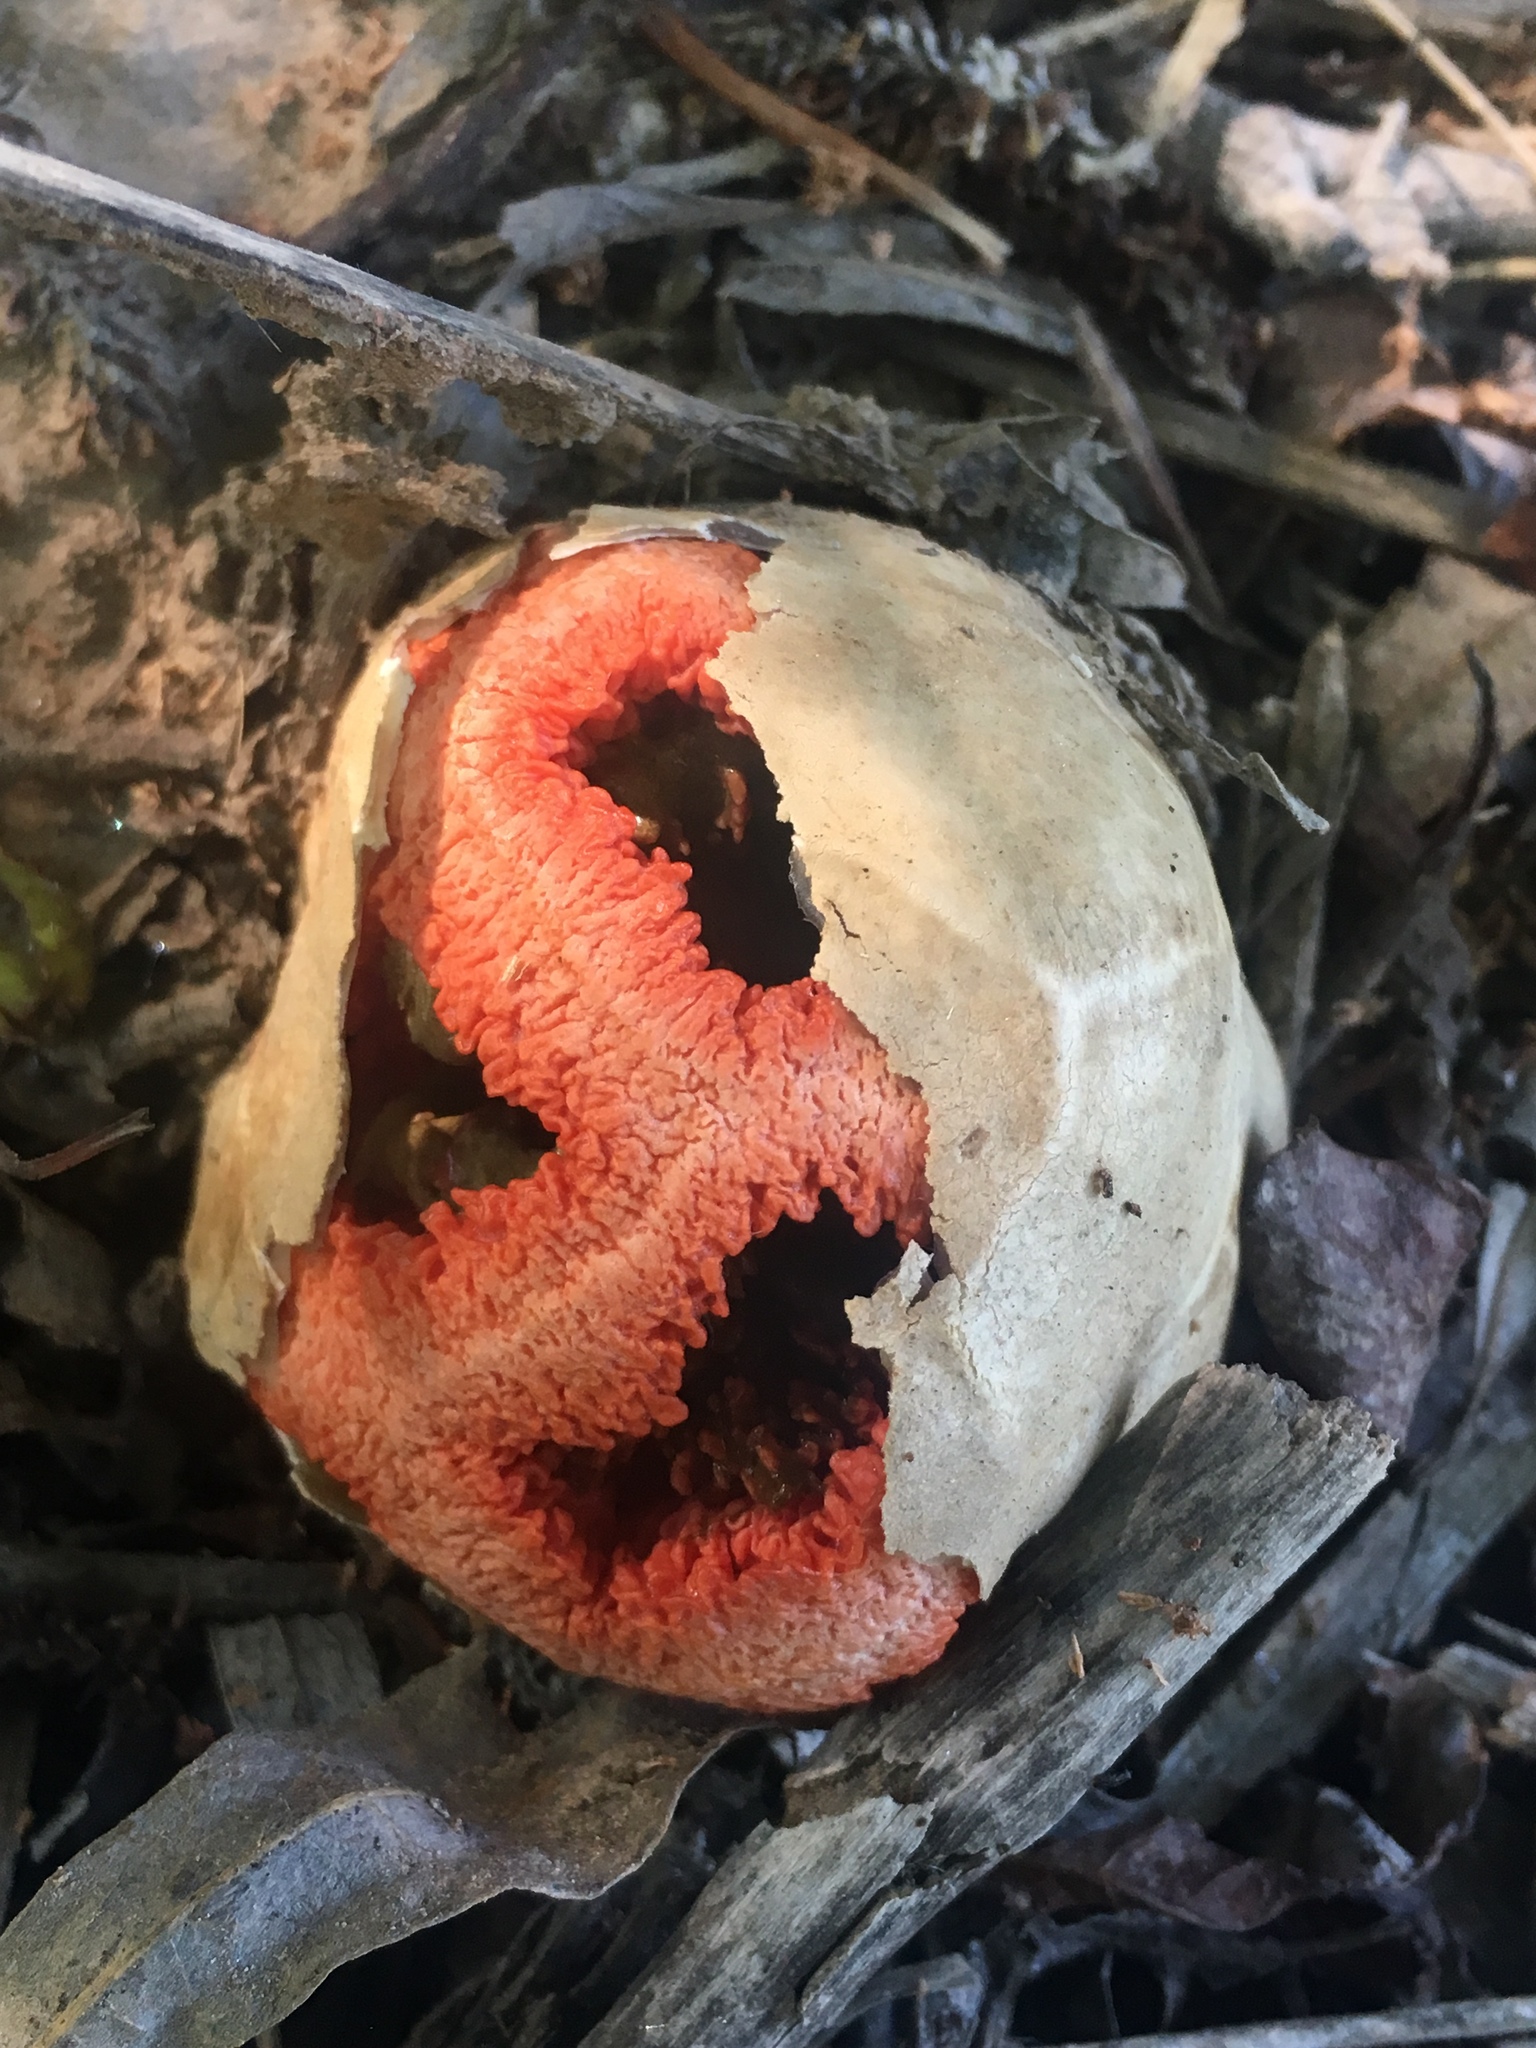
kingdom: Fungi
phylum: Basidiomycota
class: Agaricomycetes
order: Phallales
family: Phallaceae
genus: Clathrus
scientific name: Clathrus ruber
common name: Red cage
